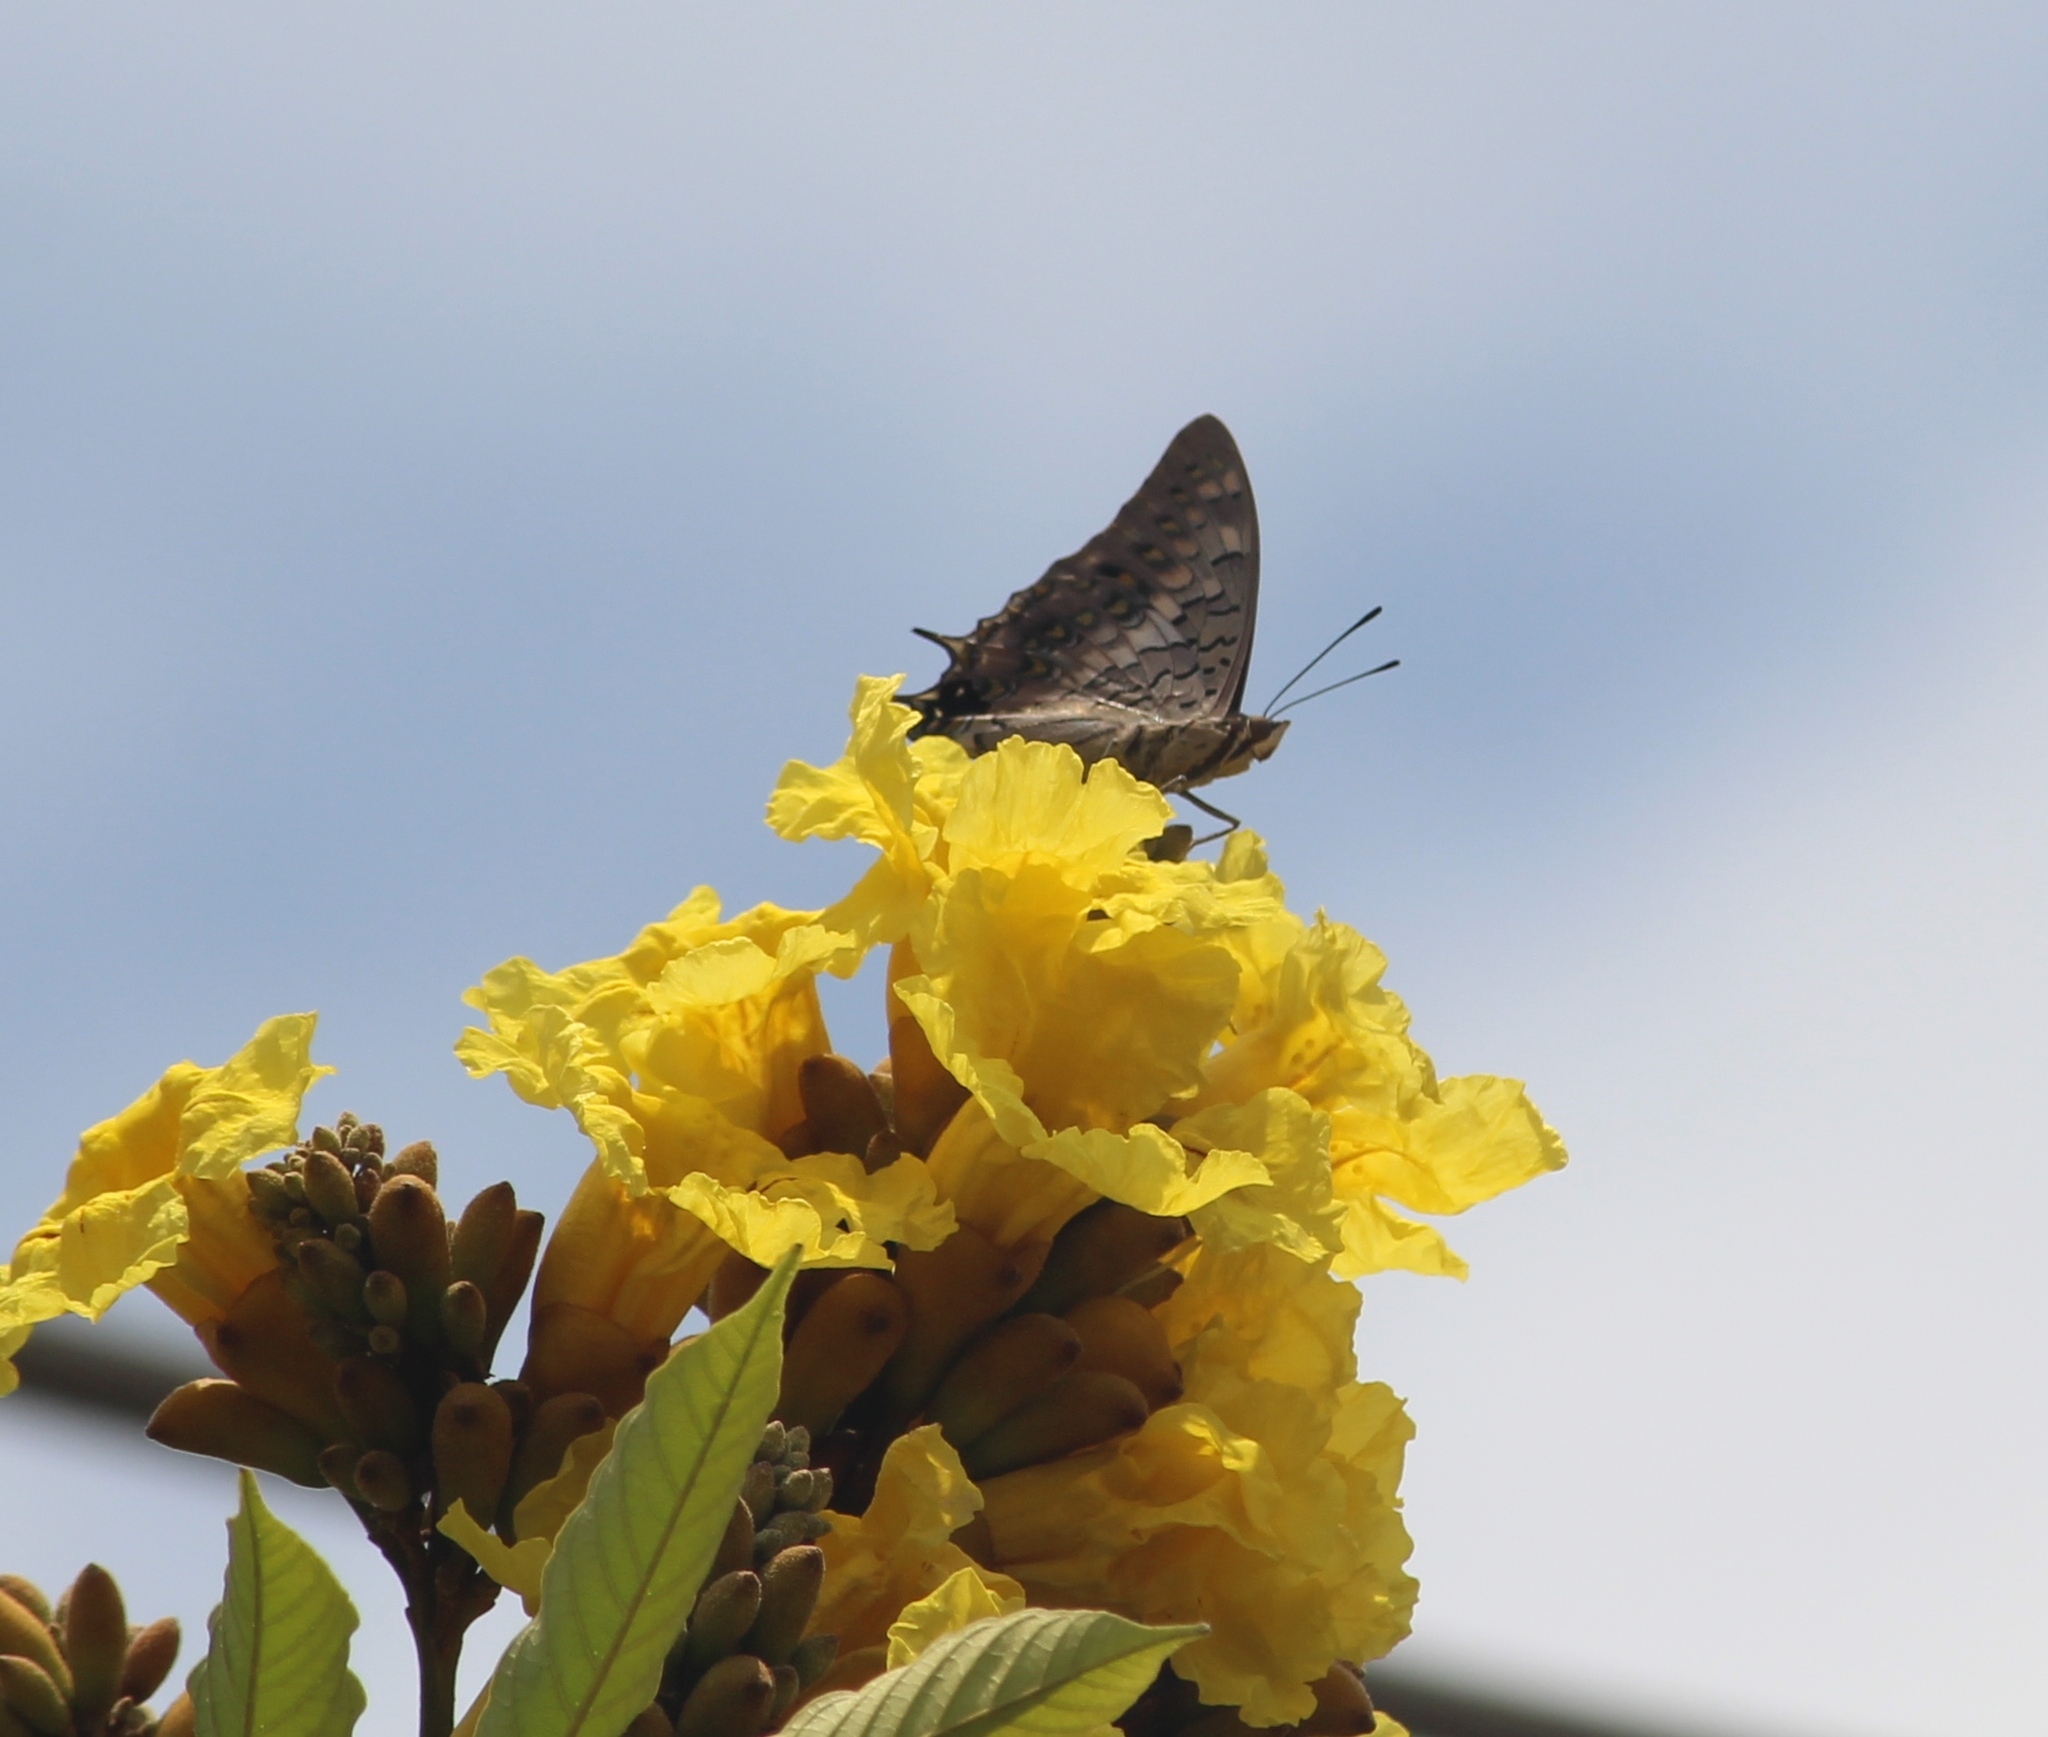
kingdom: Animalia
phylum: Arthropoda
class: Insecta
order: Lepidoptera
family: Nymphalidae
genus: Charaxes
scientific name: Charaxes solon
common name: Black rajah
